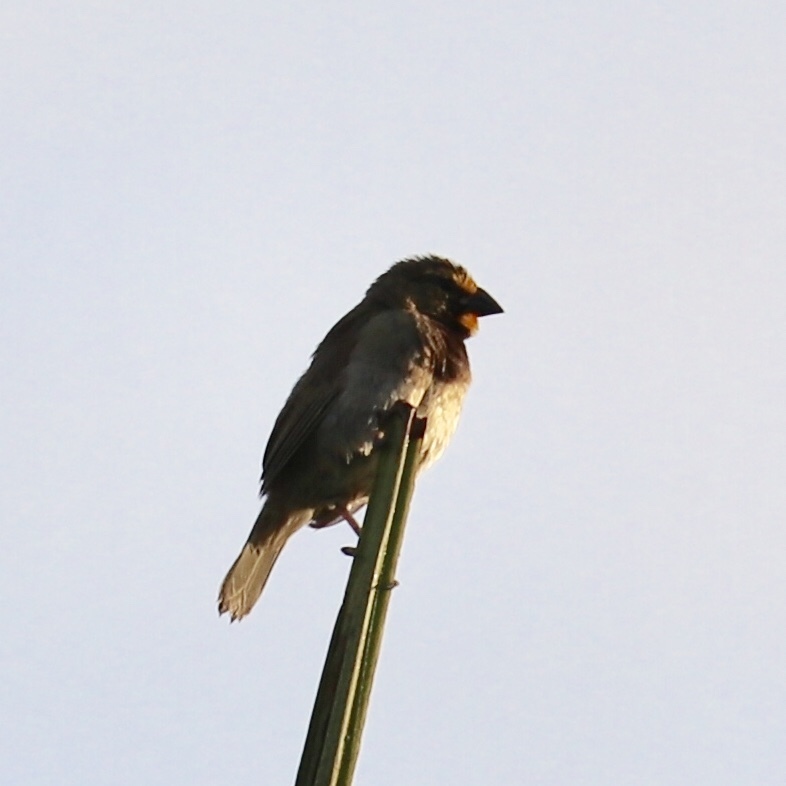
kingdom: Animalia
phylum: Chordata
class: Aves
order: Passeriformes
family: Thraupidae
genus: Tiaris
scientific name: Tiaris olivaceus
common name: Yellow-faced grassquit
